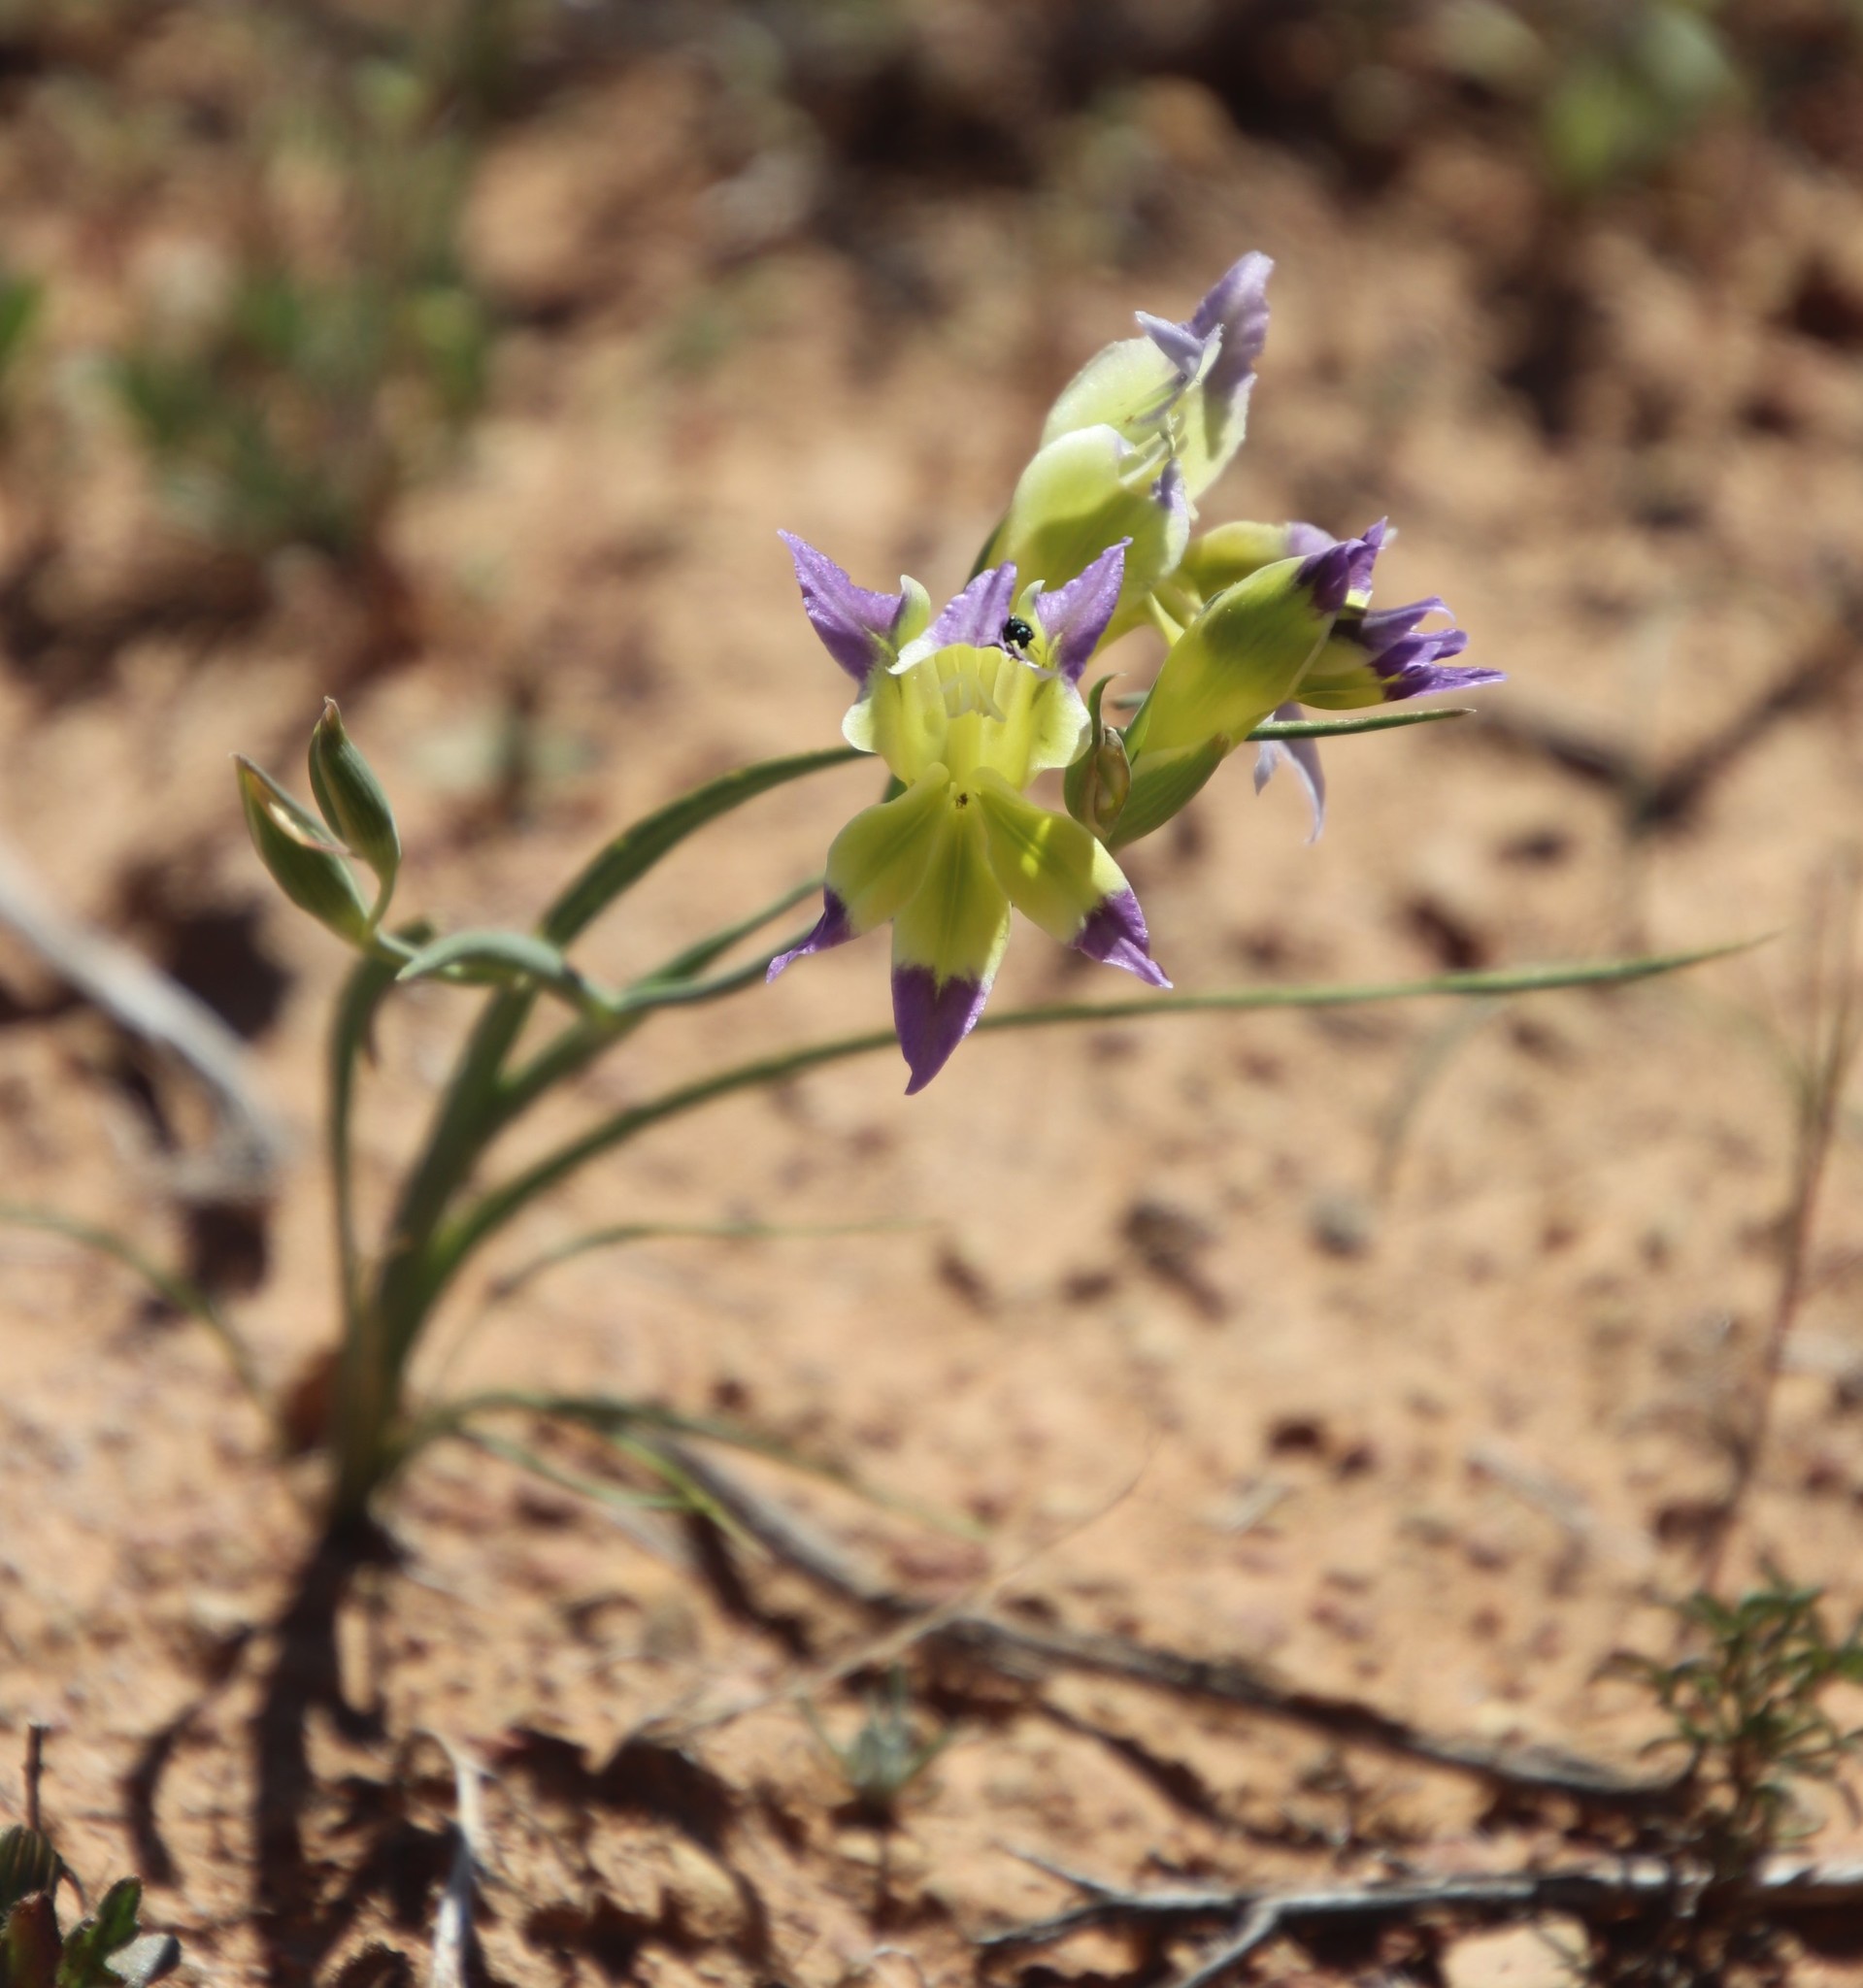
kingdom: Plantae
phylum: Tracheophyta
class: Liliopsida
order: Asparagales
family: Iridaceae
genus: Gladiolus
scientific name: Gladiolus venustus
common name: Purple kalkoentjie
